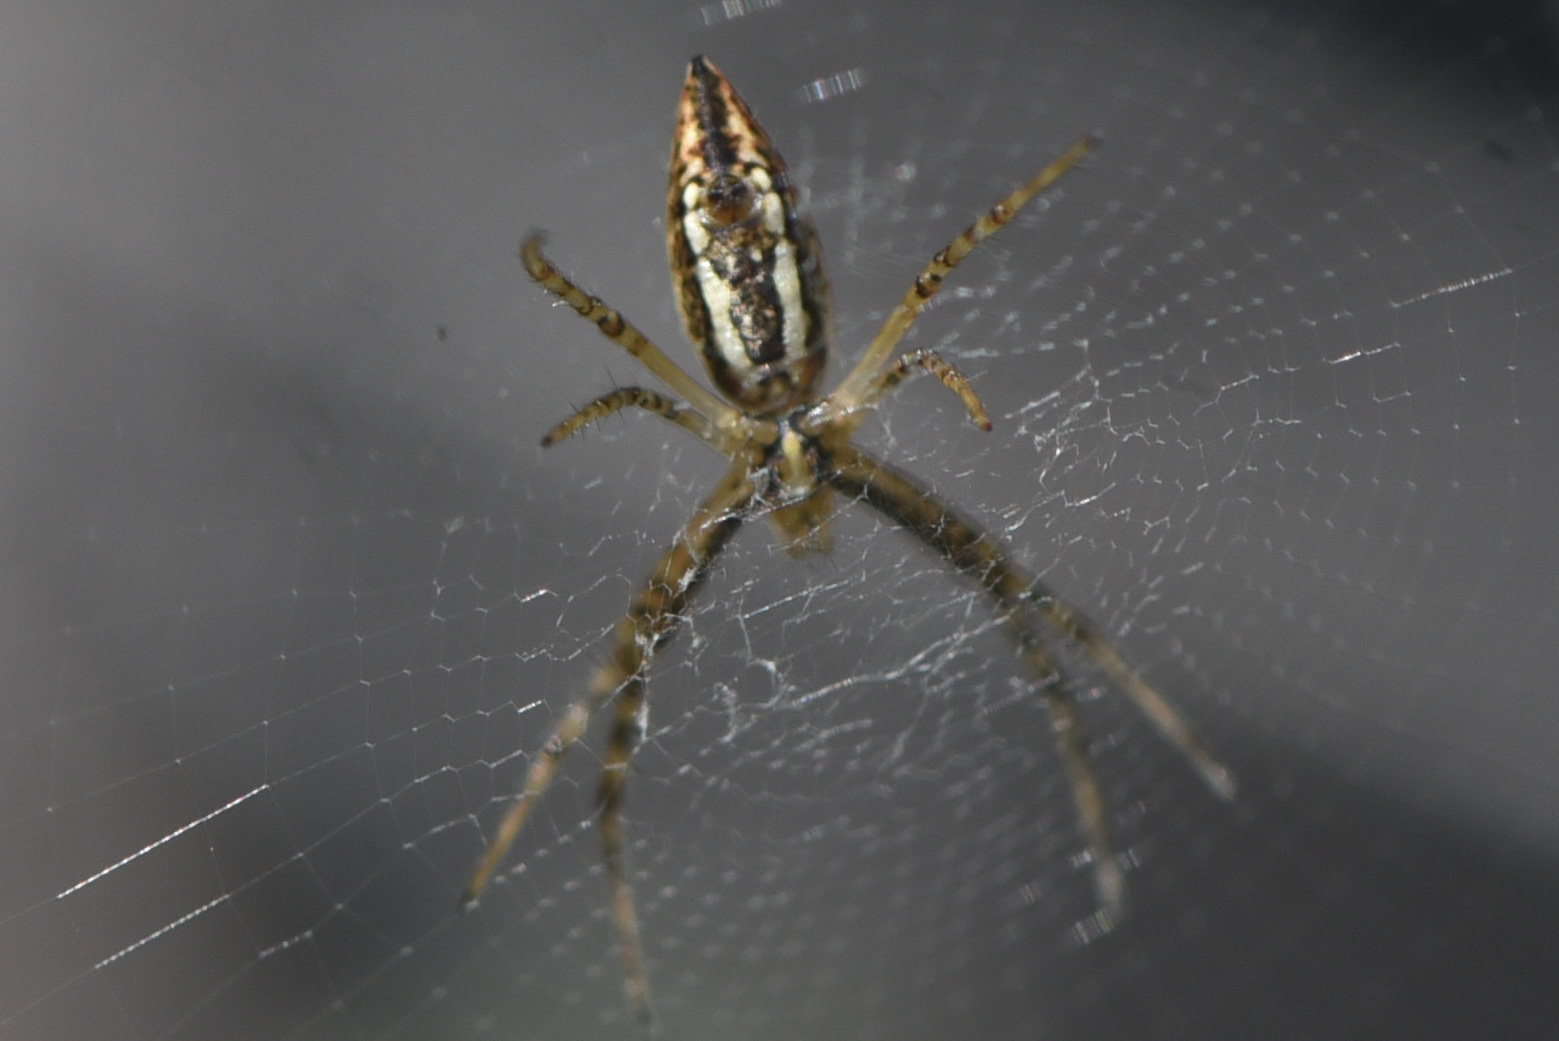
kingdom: Animalia
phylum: Arthropoda
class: Arachnida
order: Araneae
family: Araneidae
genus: Argiope
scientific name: Argiope trifasciata
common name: Banded garden spider
